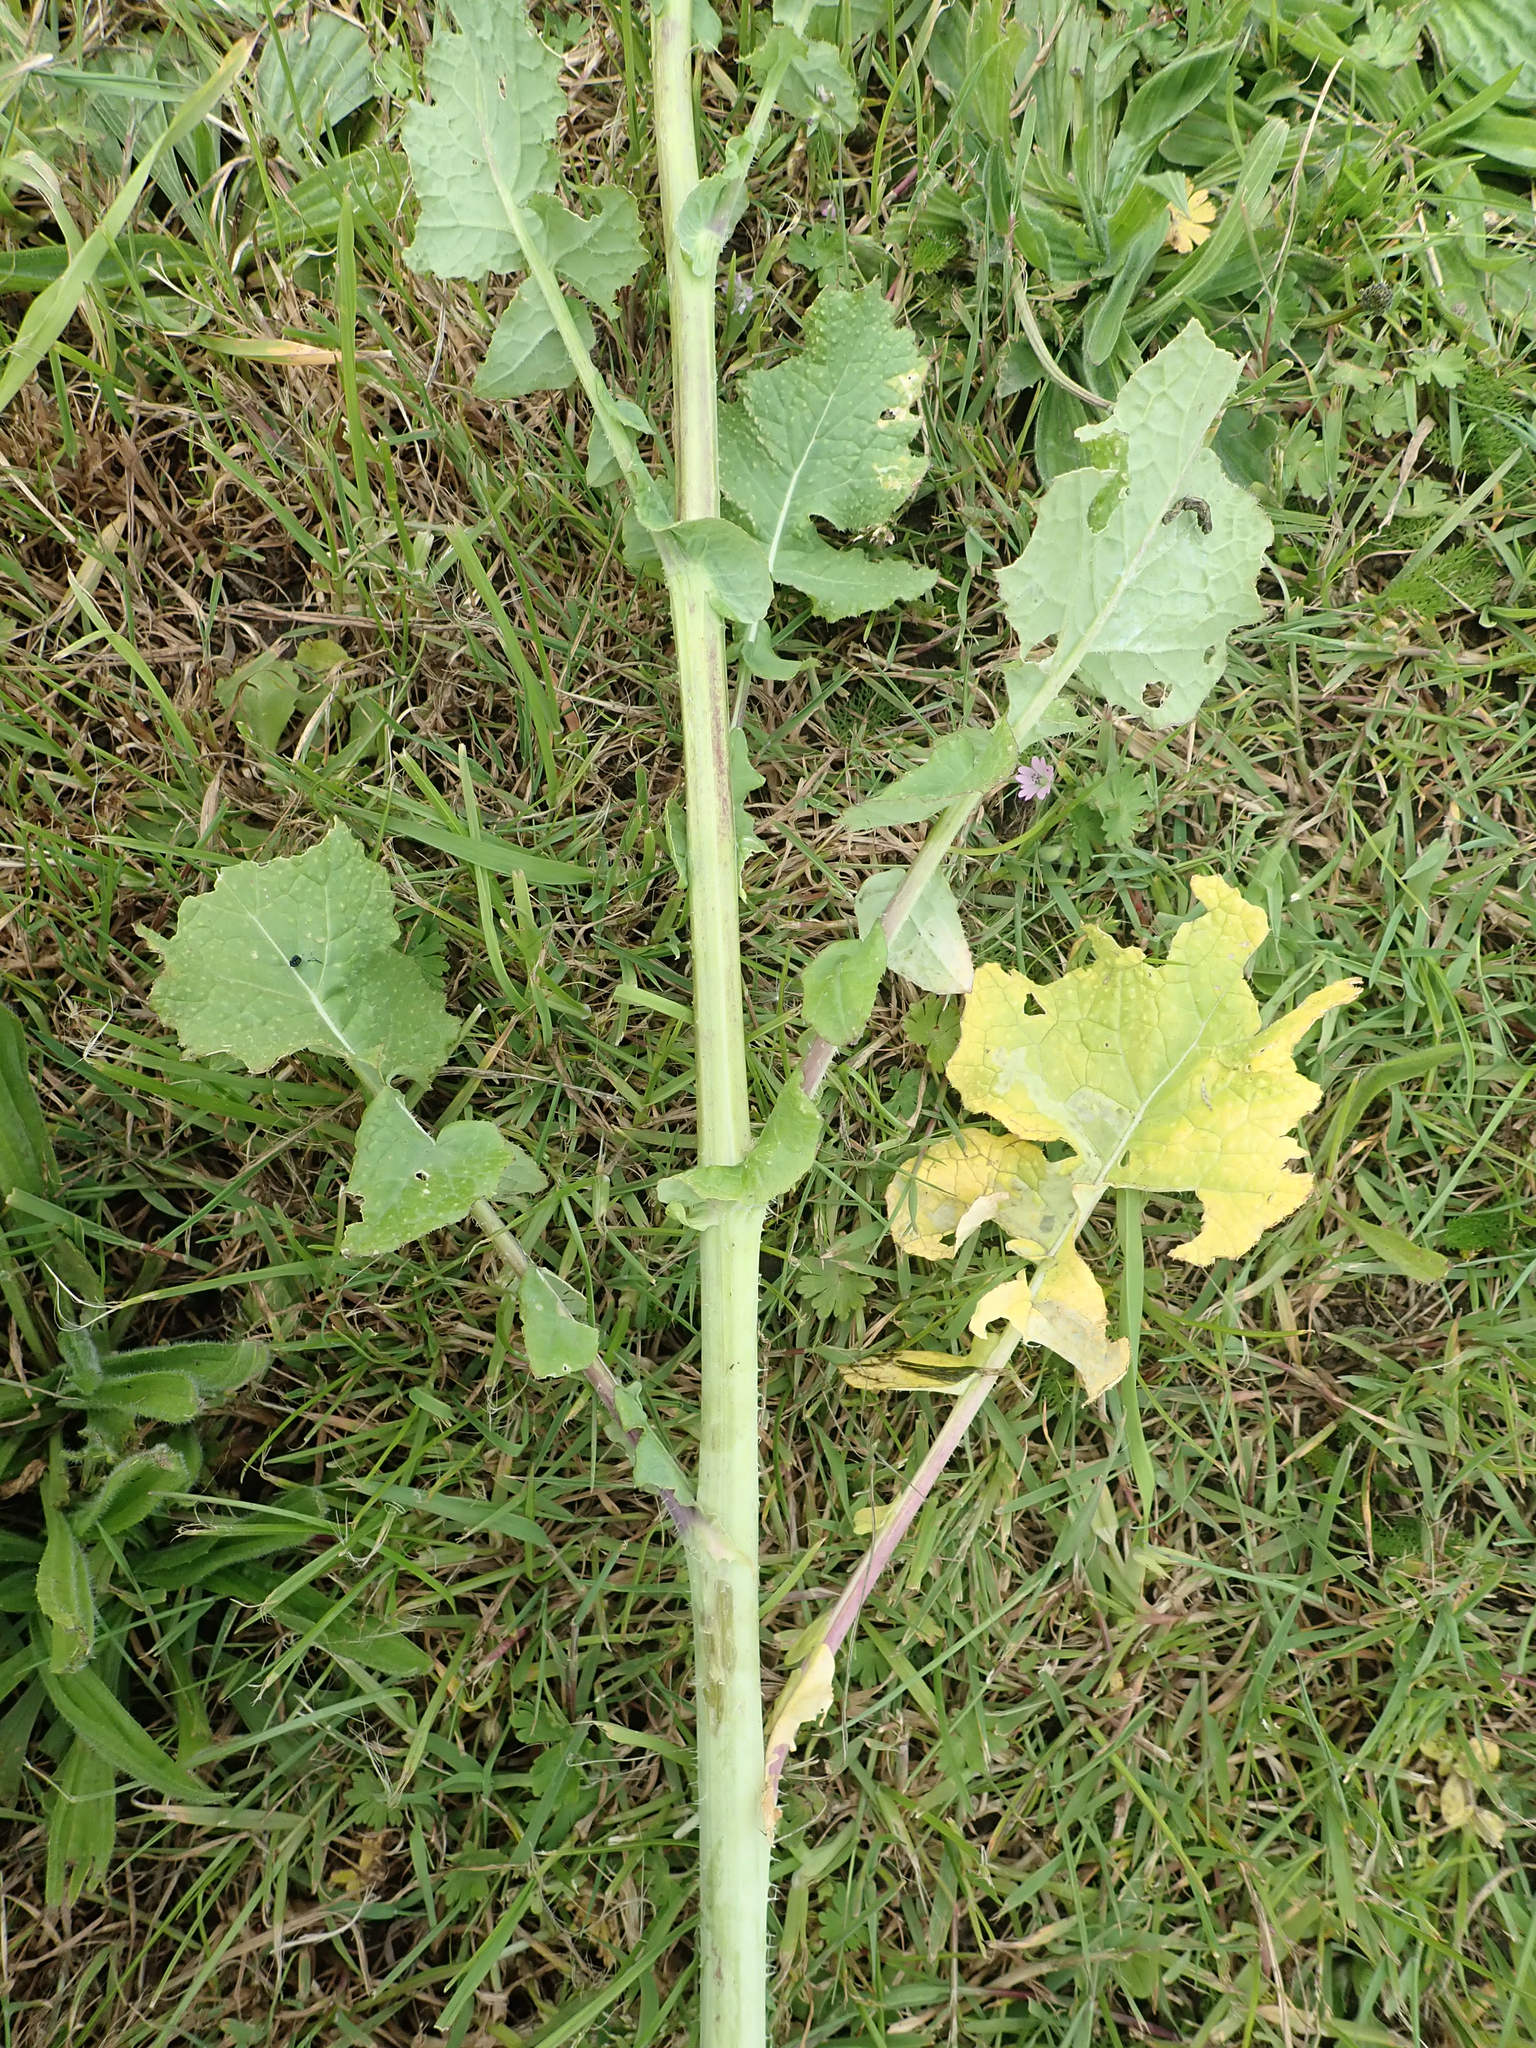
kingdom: Plantae
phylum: Tracheophyta
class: Magnoliopsida
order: Brassicales
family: Brassicaceae
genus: Brassica
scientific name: Brassica napus
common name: Rape
